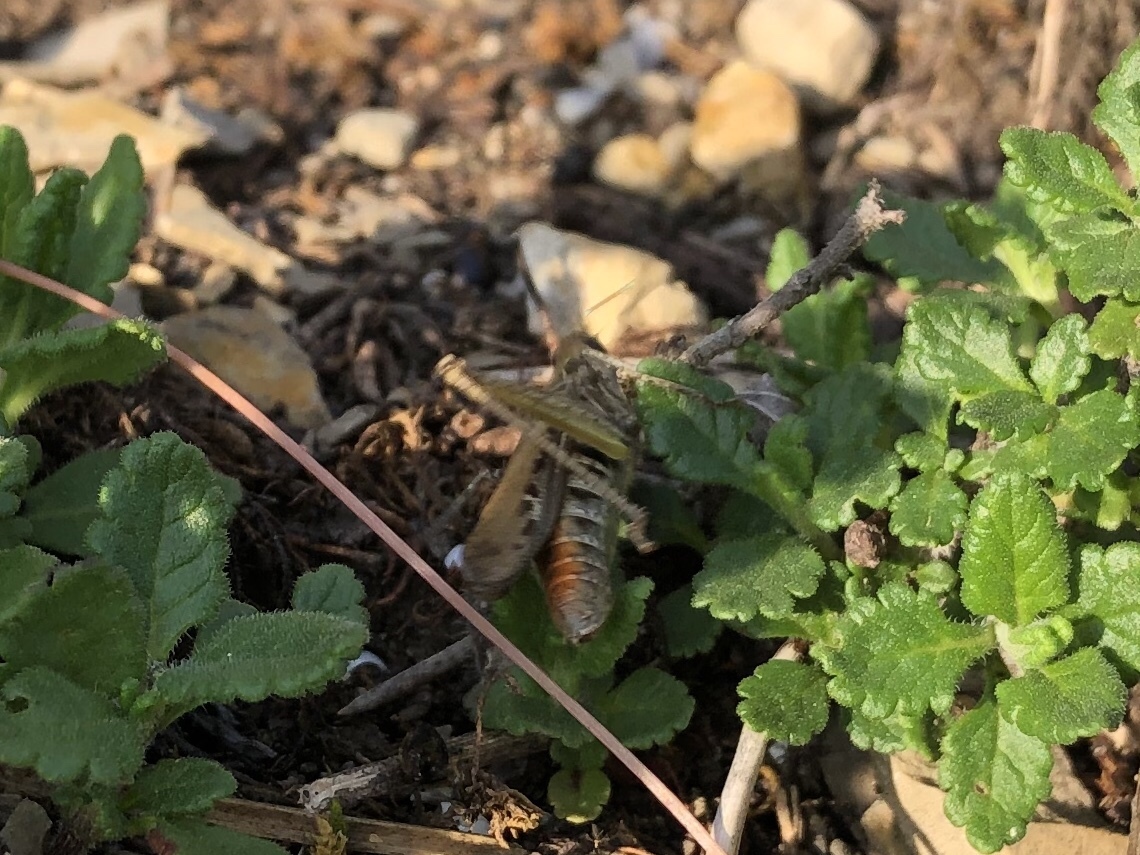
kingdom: Animalia
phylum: Arthropoda
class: Insecta
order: Orthoptera
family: Acrididae
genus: Chorthippus
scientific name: Chorthippus biguttulus
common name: Bow-winged grasshopper
